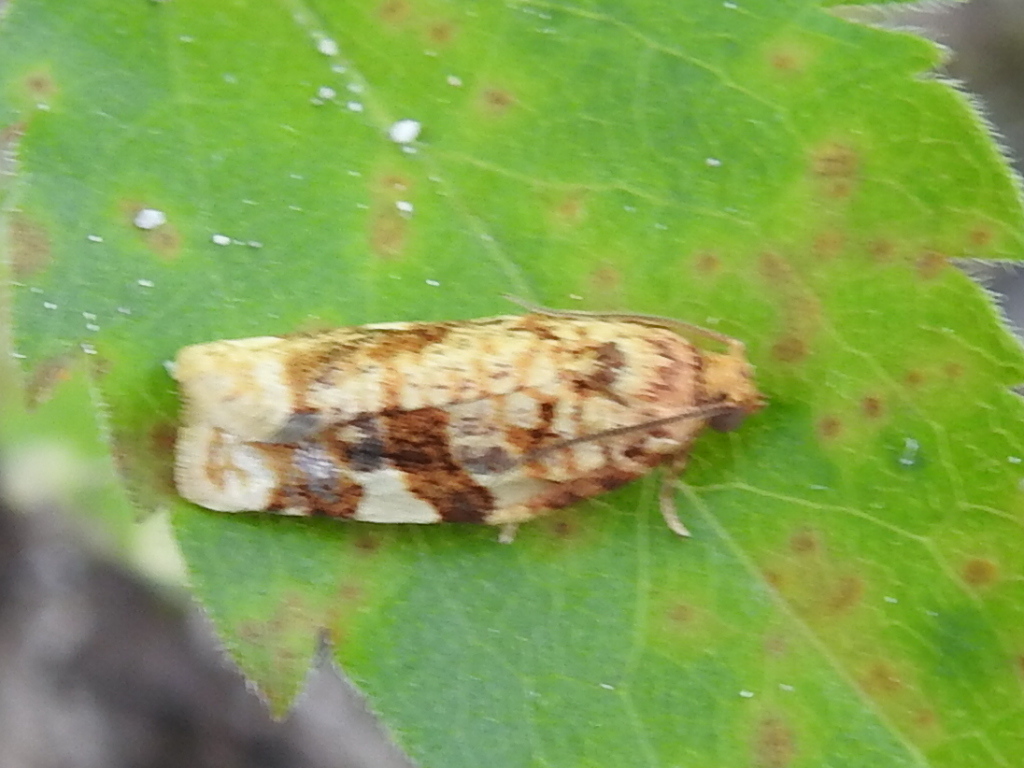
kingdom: Animalia
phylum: Arthropoda
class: Insecta
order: Lepidoptera
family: Tortricidae
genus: Archips
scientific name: Archips argyrospila
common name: Fruit-tree leafroller moth
